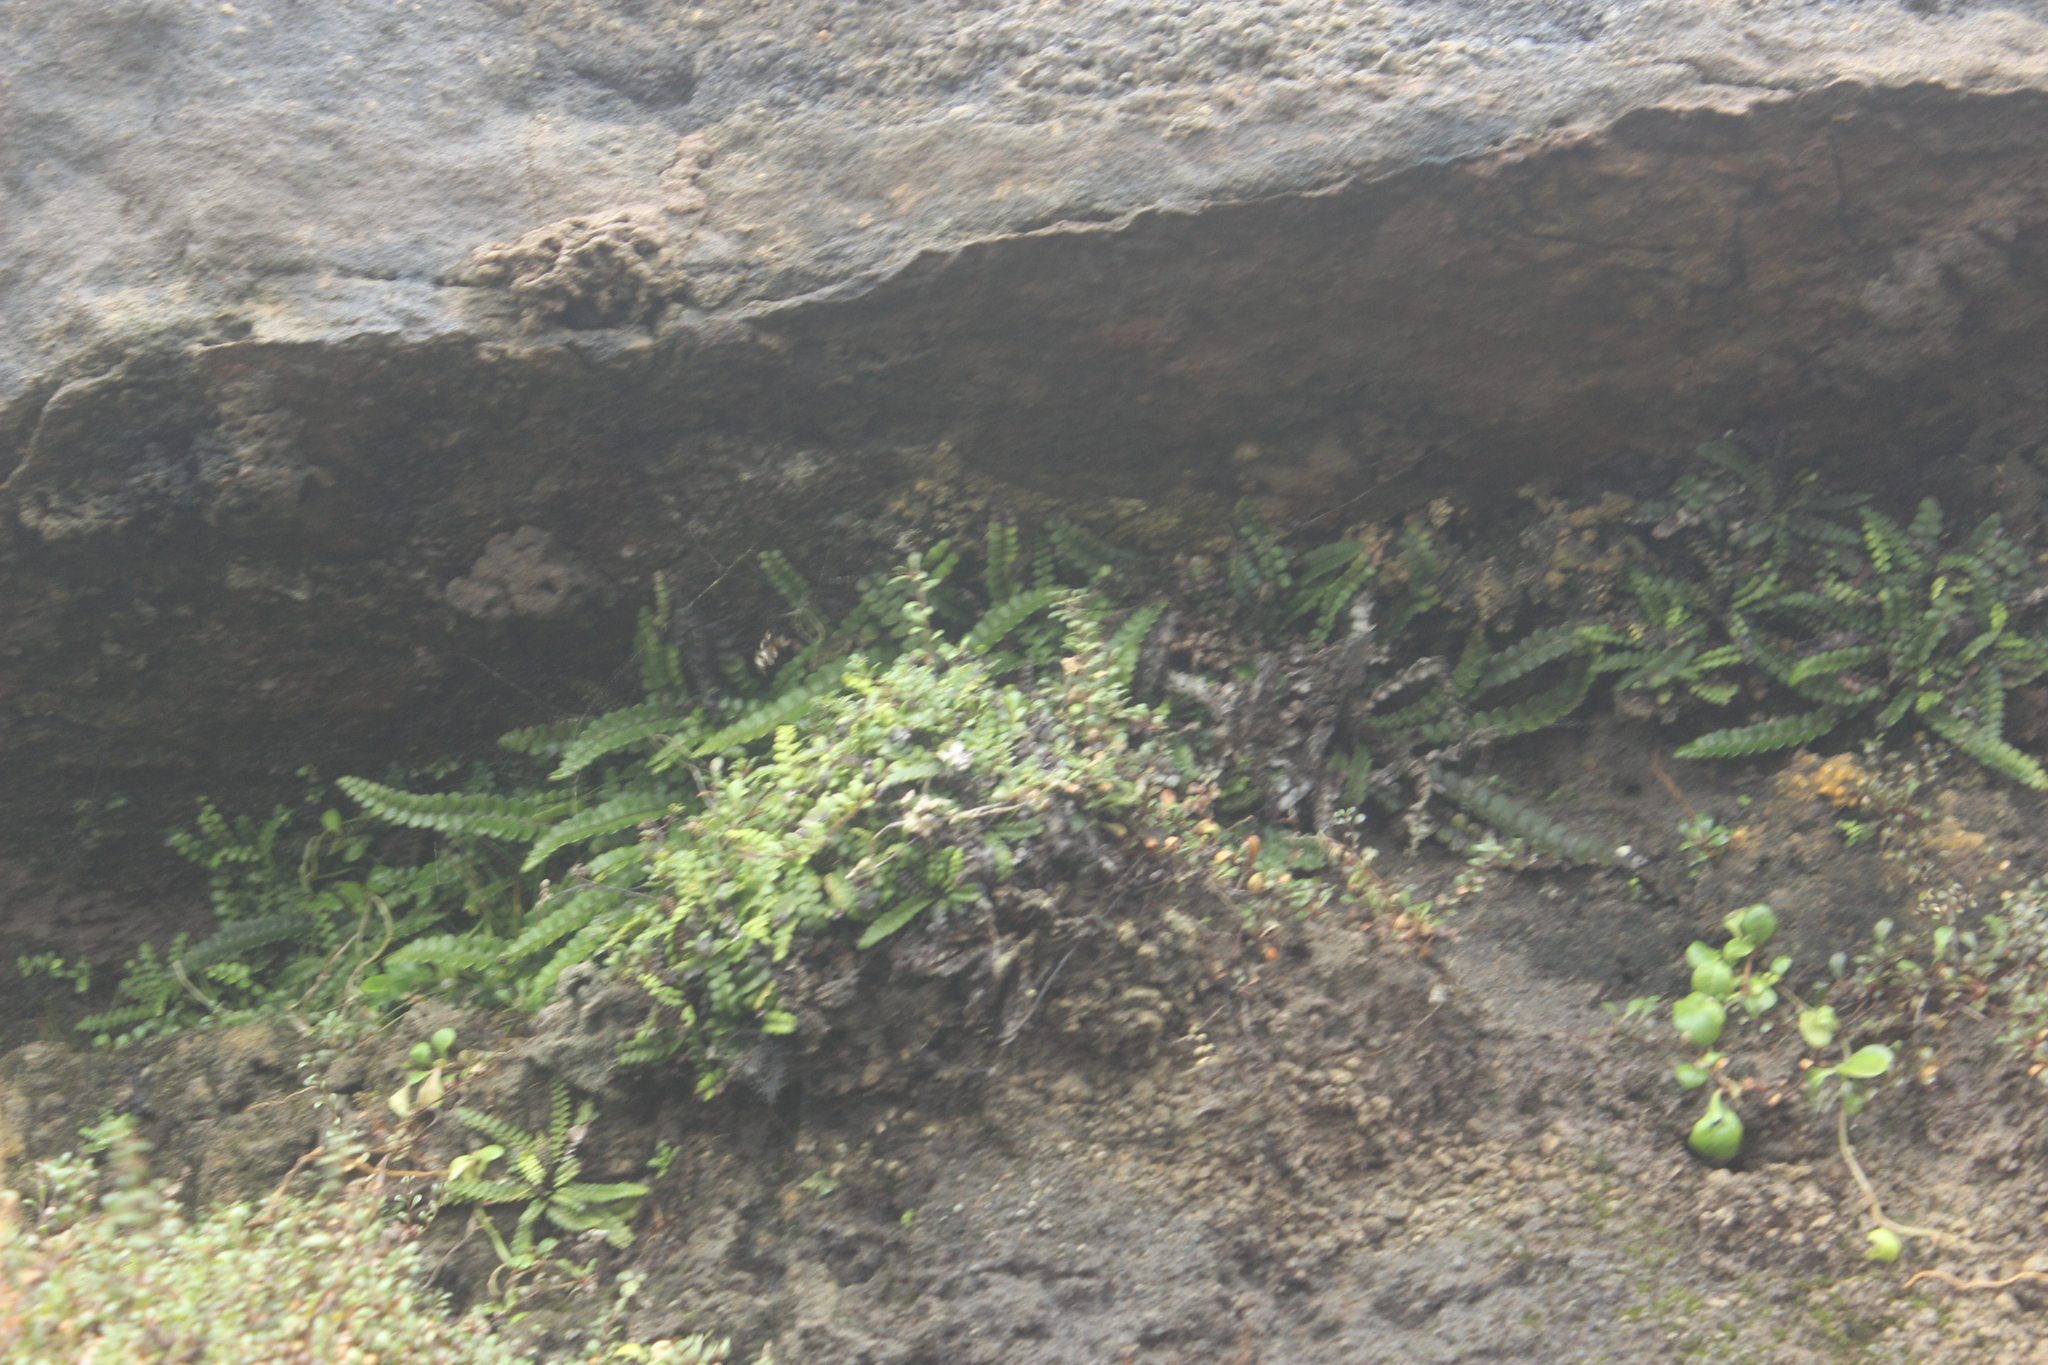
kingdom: Plantae
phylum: Tracheophyta
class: Polypodiopsida
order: Polypodiales
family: Blechnaceae
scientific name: Blechnaceae
